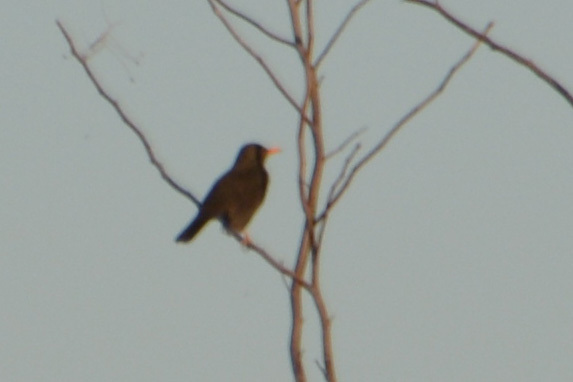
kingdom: Animalia
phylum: Chordata
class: Aves
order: Passeriformes
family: Turdidae
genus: Turdus
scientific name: Turdus chiguanco
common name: Chiguanco thrush
